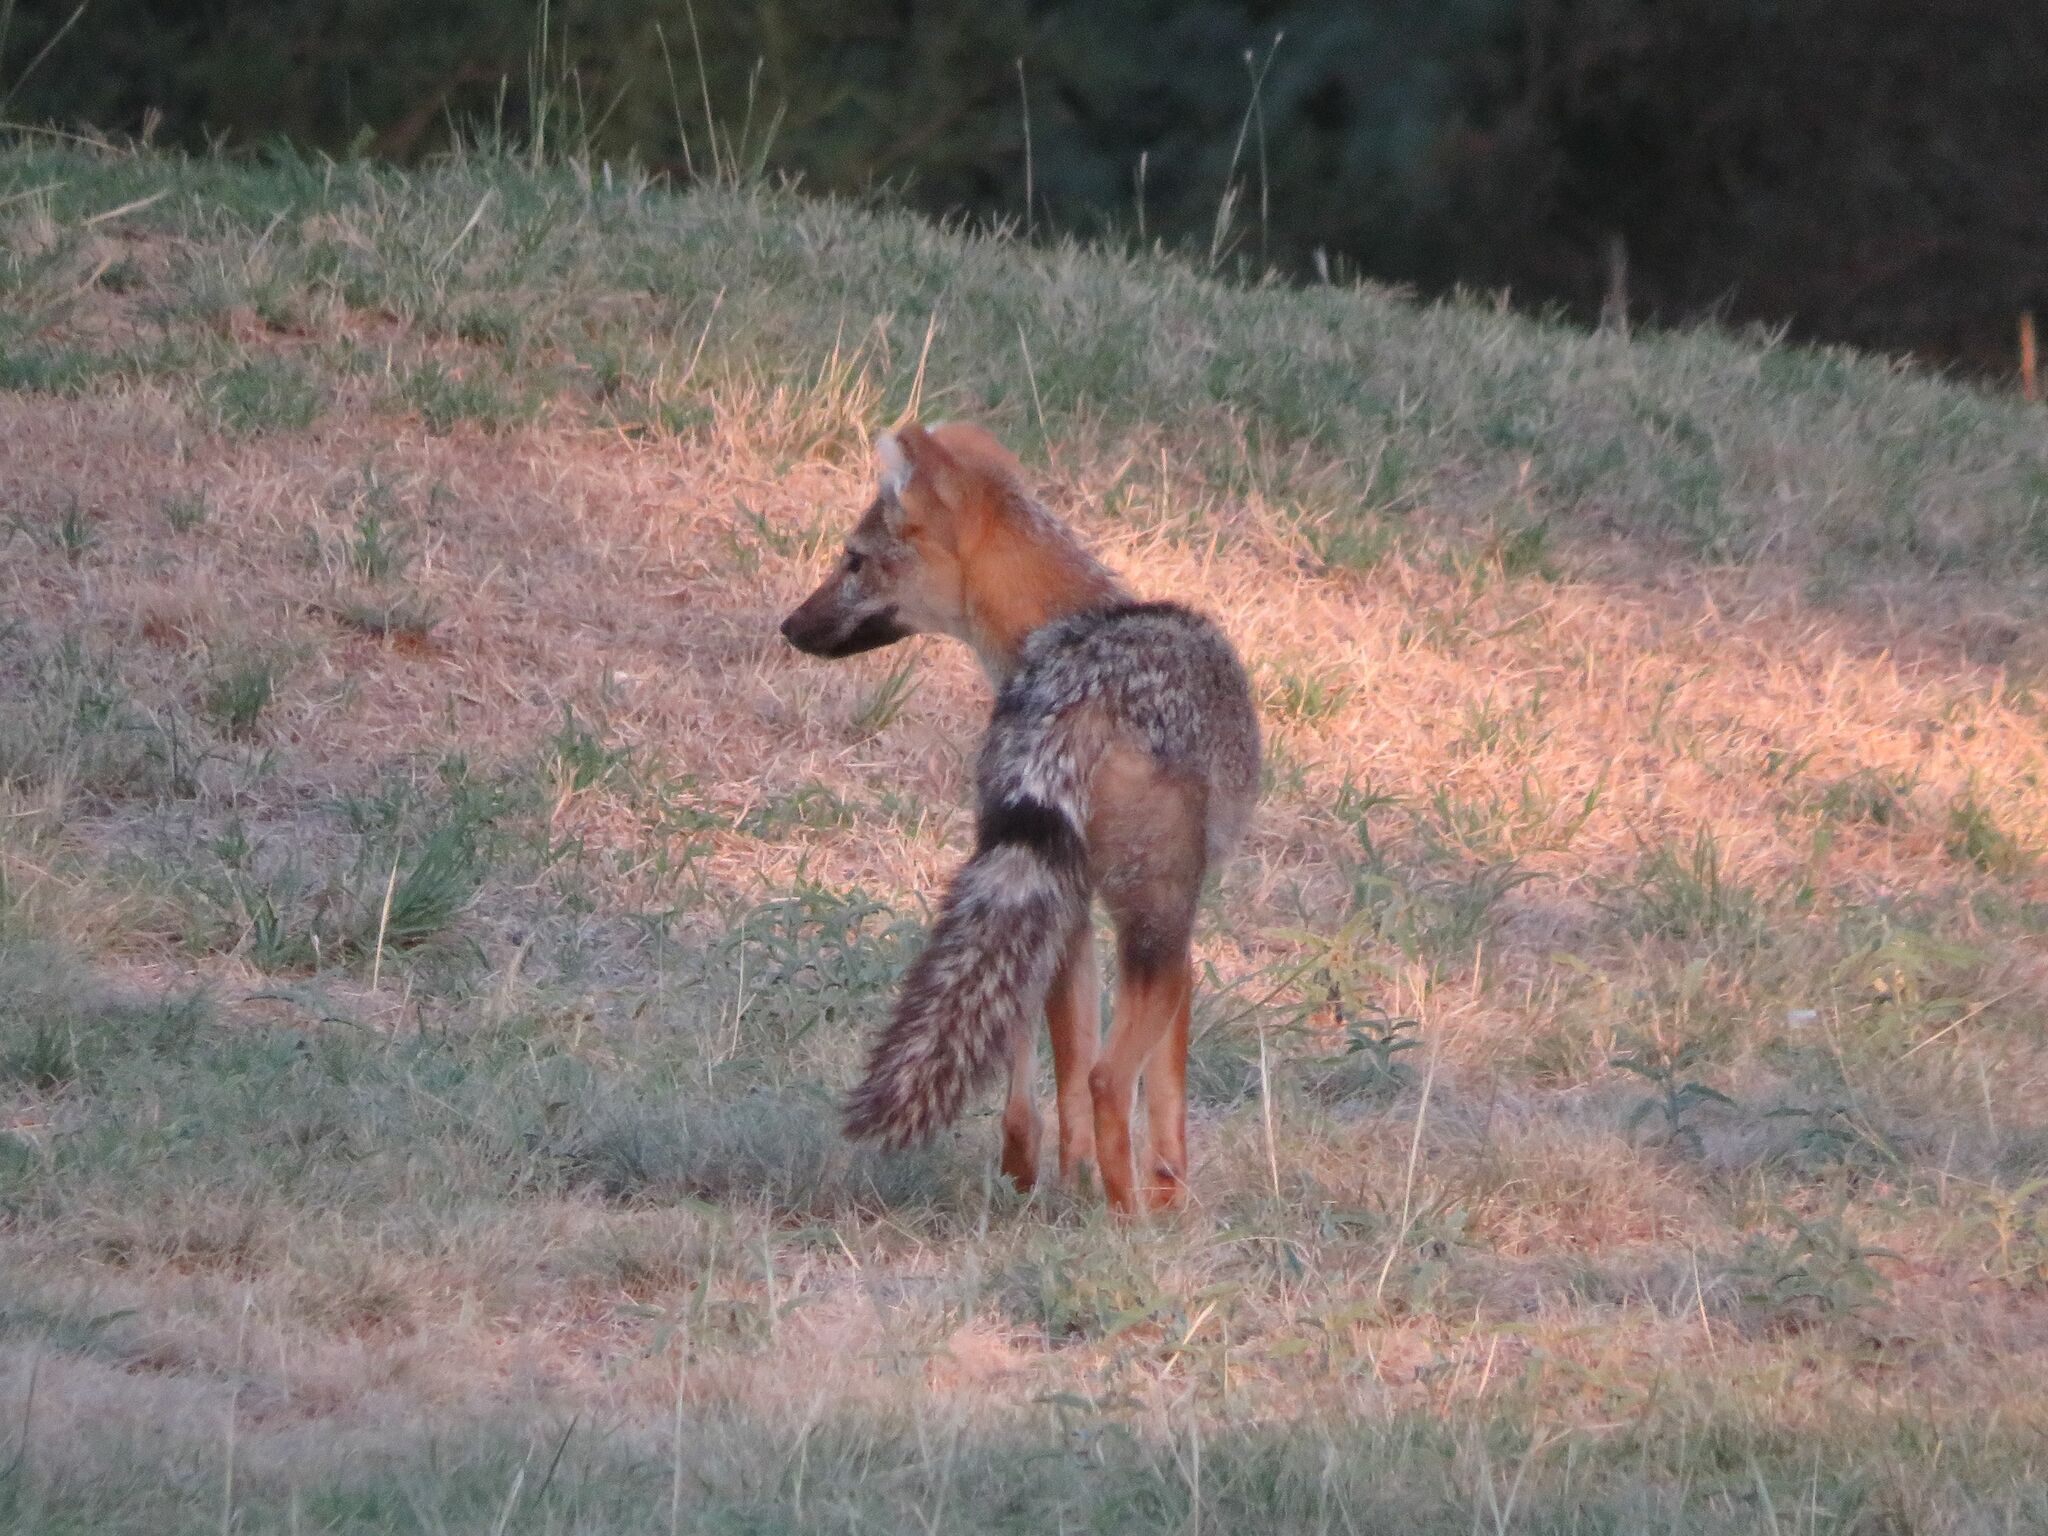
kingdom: Animalia
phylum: Chordata
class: Mammalia
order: Carnivora
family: Canidae
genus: Lycalopex
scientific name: Lycalopex gymnocercus
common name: Pampas fox
